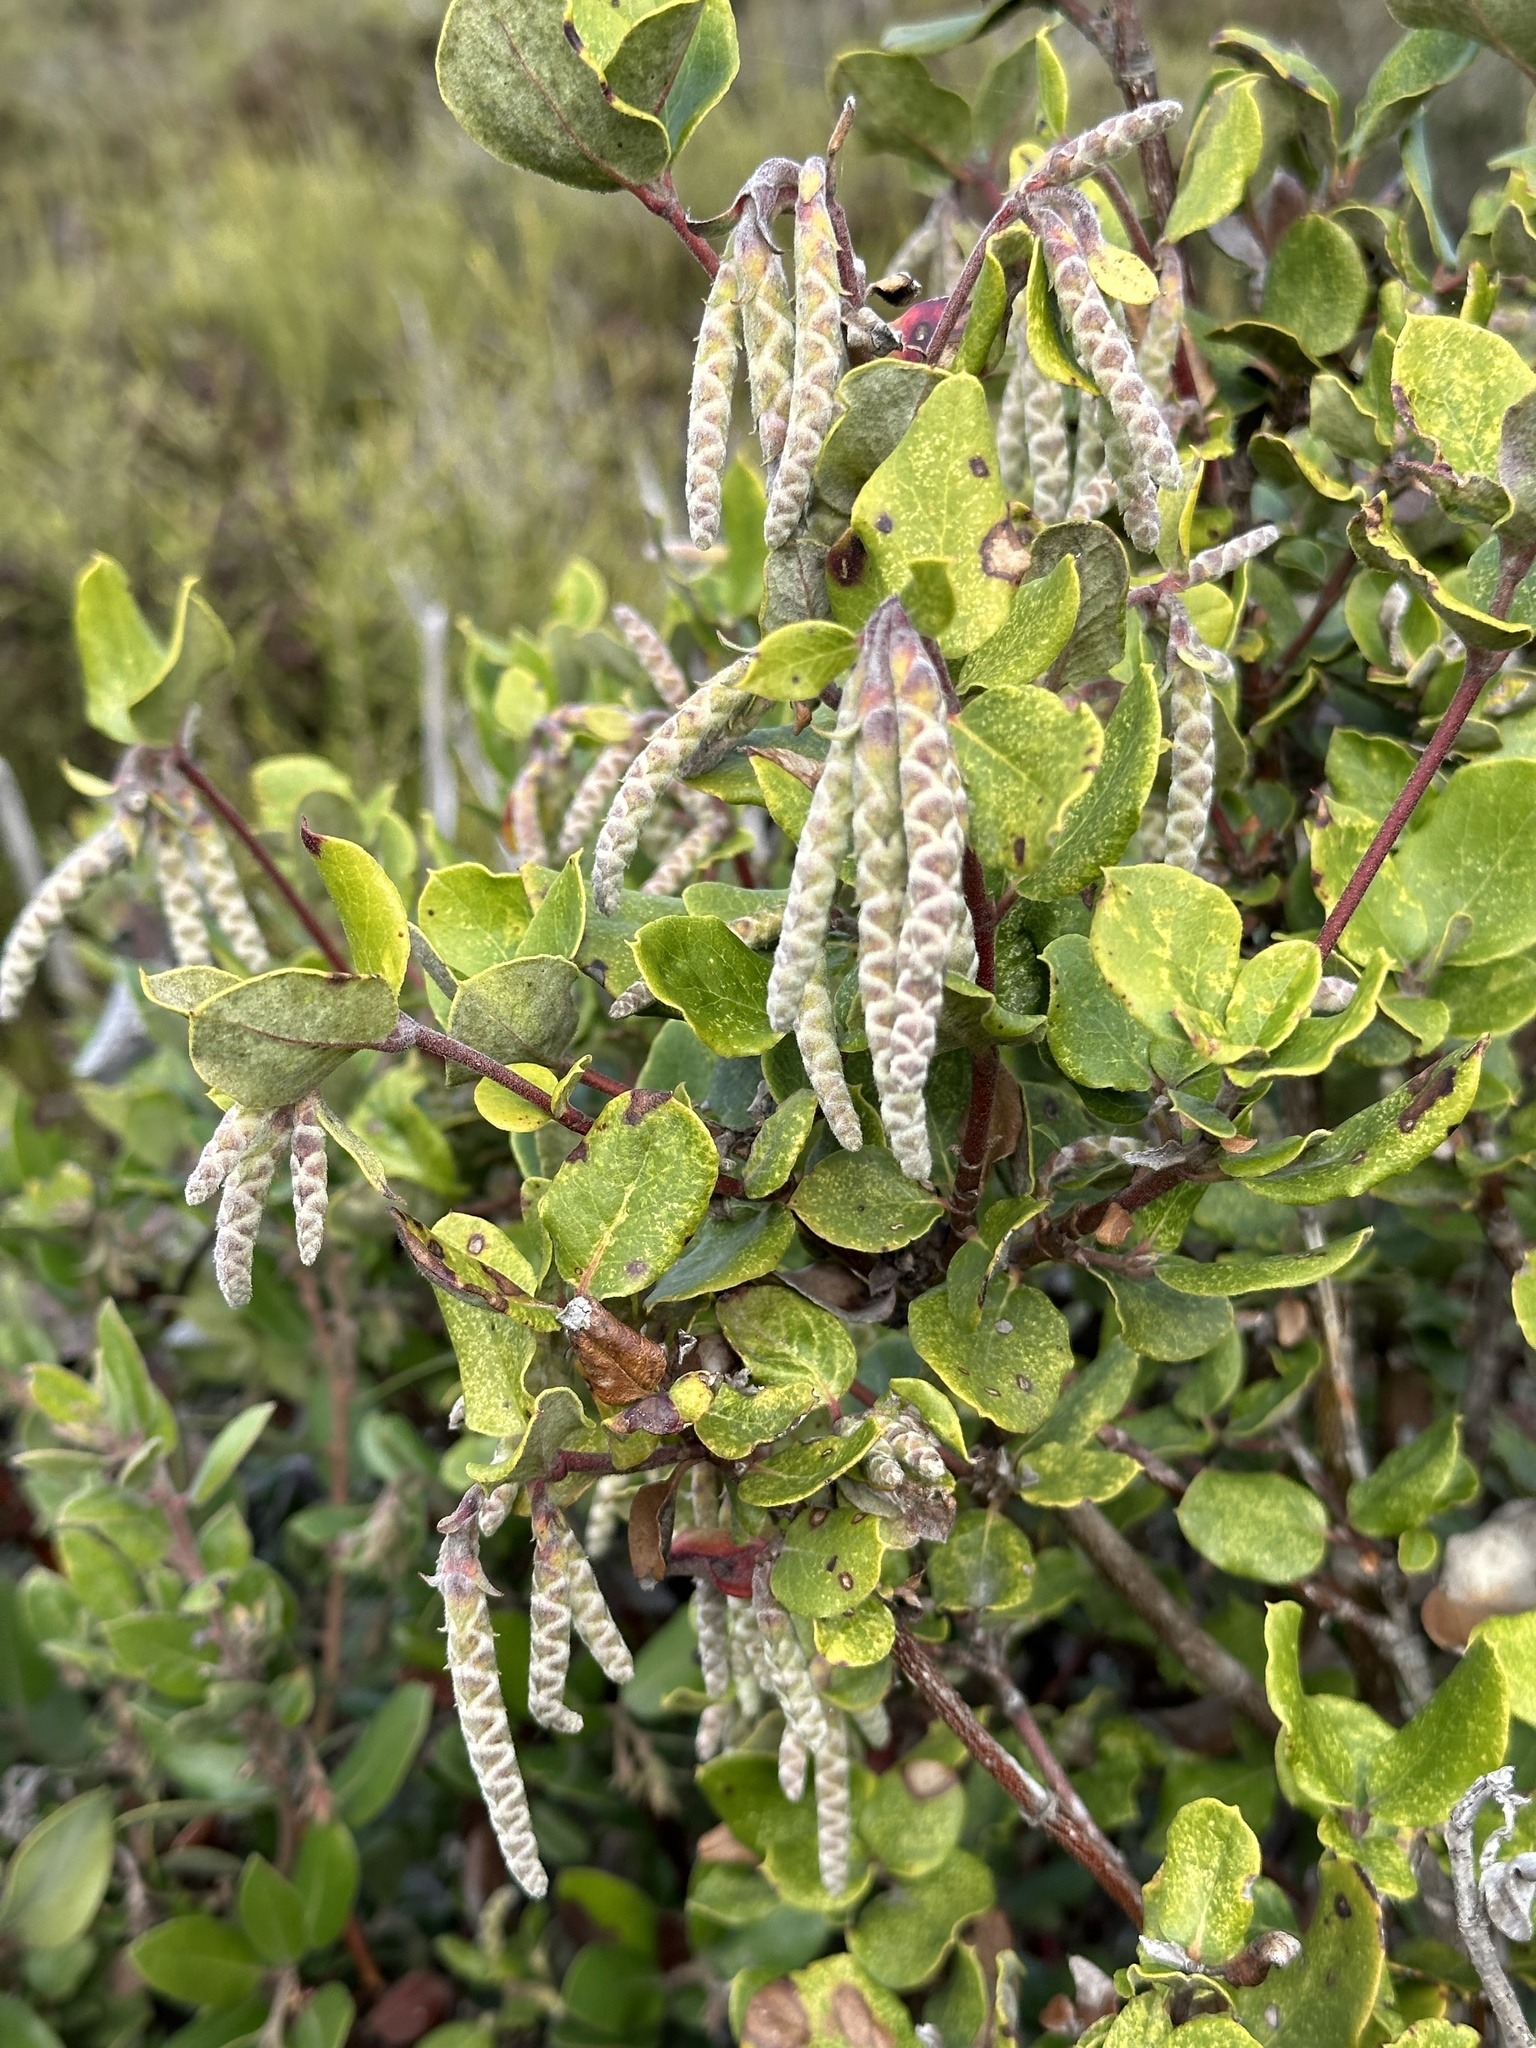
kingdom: Plantae
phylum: Tracheophyta
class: Magnoliopsida
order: Garryales
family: Garryaceae
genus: Garrya
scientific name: Garrya elliptica
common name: Silk-tassel
